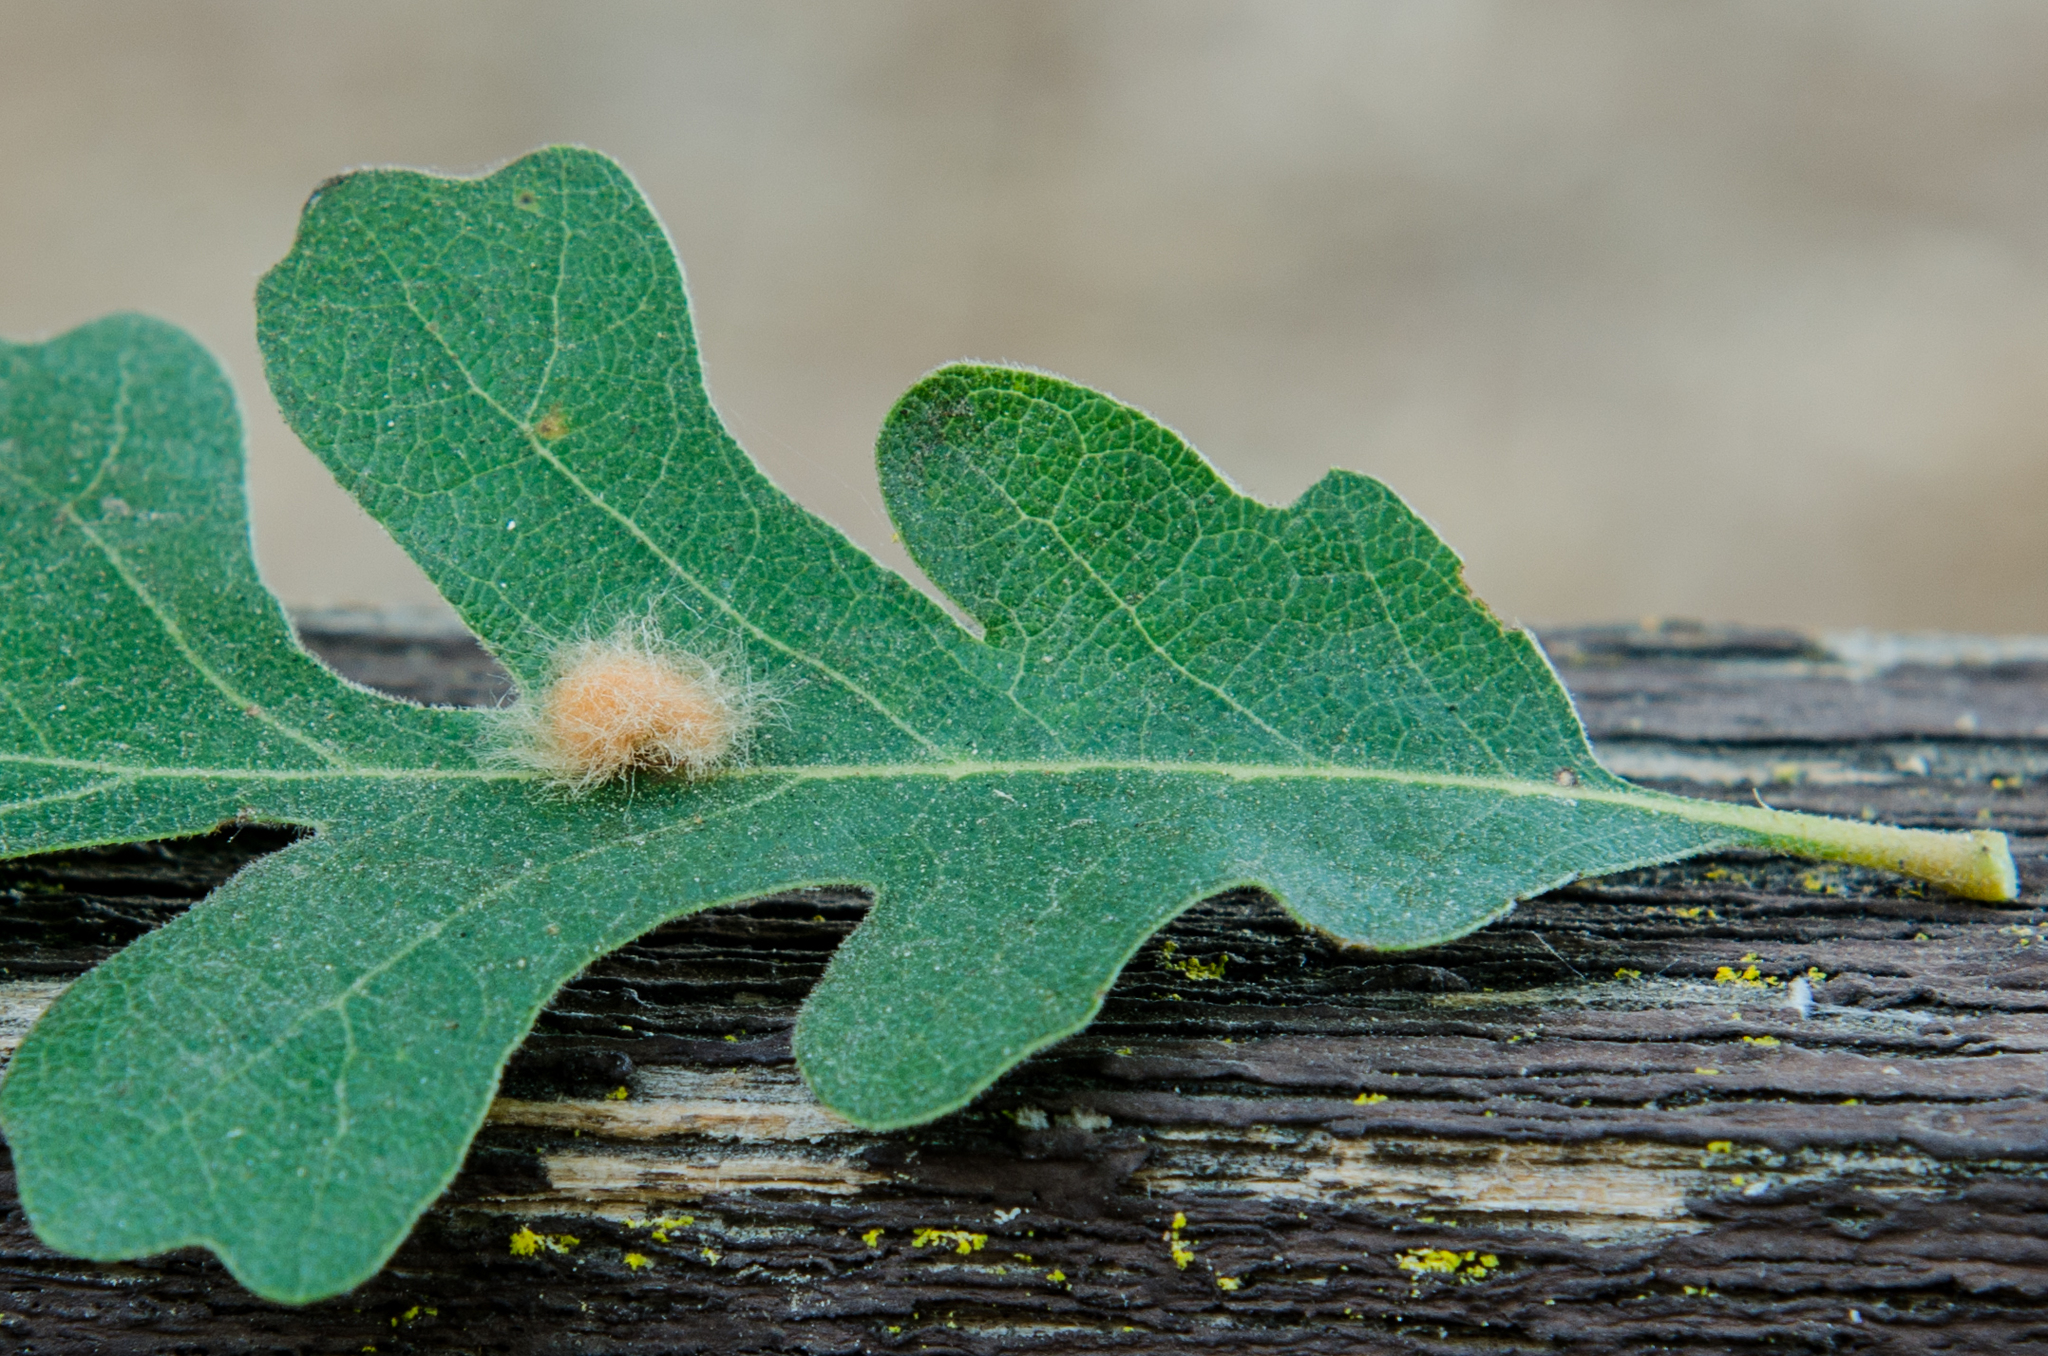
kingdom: Animalia
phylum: Arthropoda
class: Insecta
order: Hymenoptera
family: Cynipidae
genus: Andricus
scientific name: Andricus Druon fullawayi
